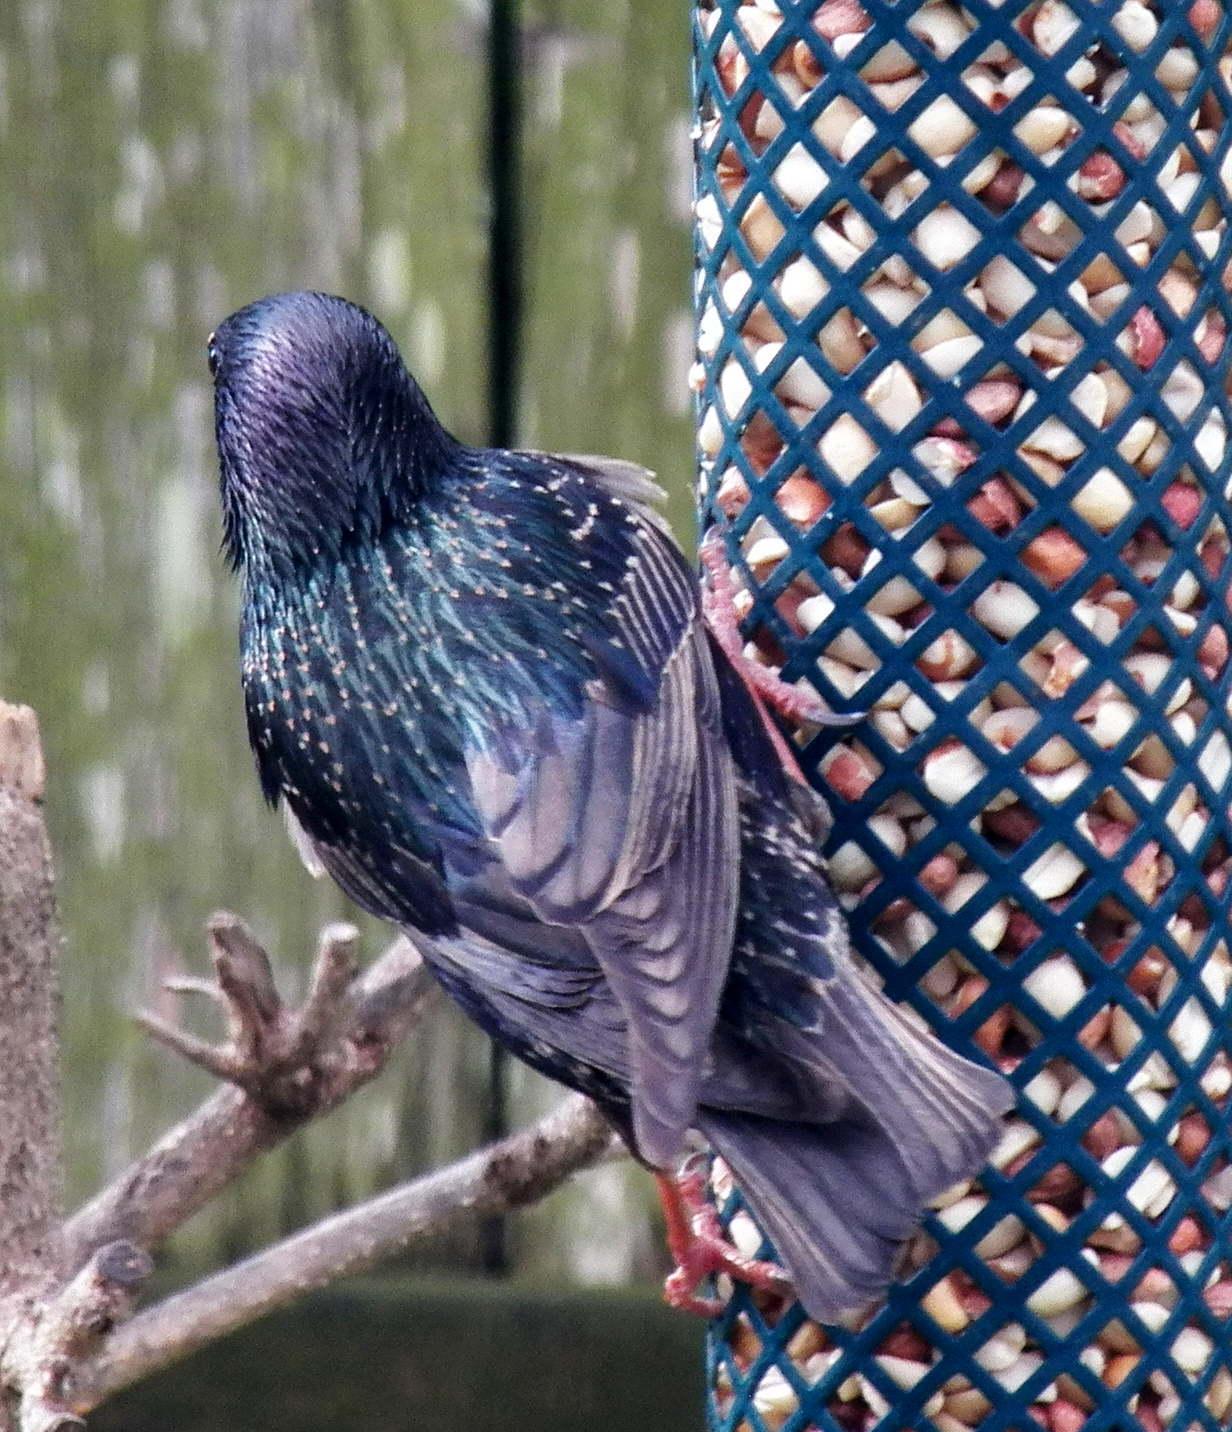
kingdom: Animalia
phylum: Chordata
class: Aves
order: Passeriformes
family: Sturnidae
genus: Sturnus
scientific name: Sturnus vulgaris
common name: Common starling
